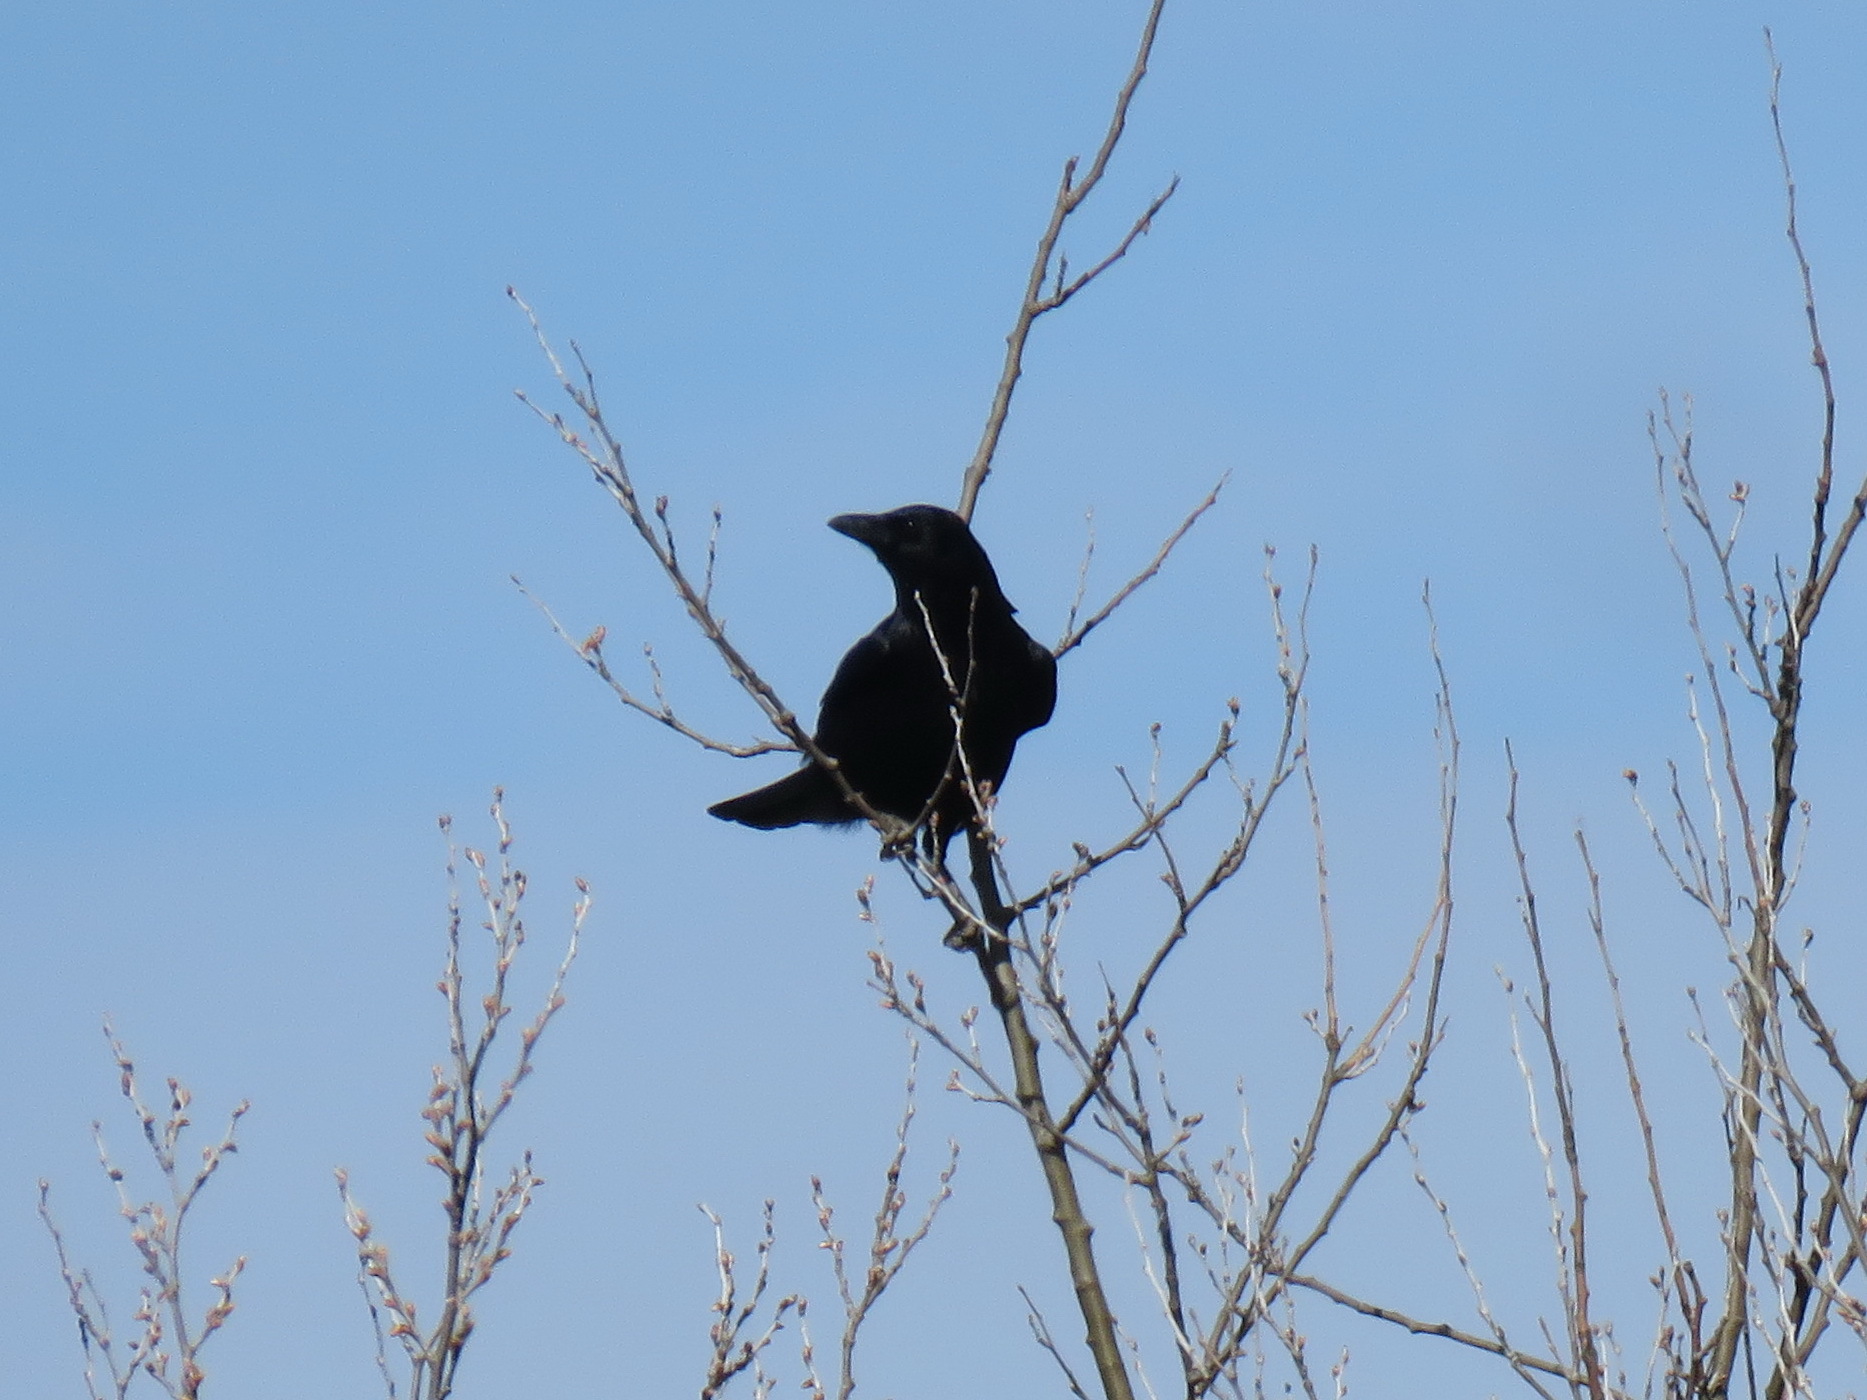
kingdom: Animalia
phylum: Chordata
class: Aves
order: Passeriformes
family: Corvidae
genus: Corvus
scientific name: Corvus corone
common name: Carrion crow
